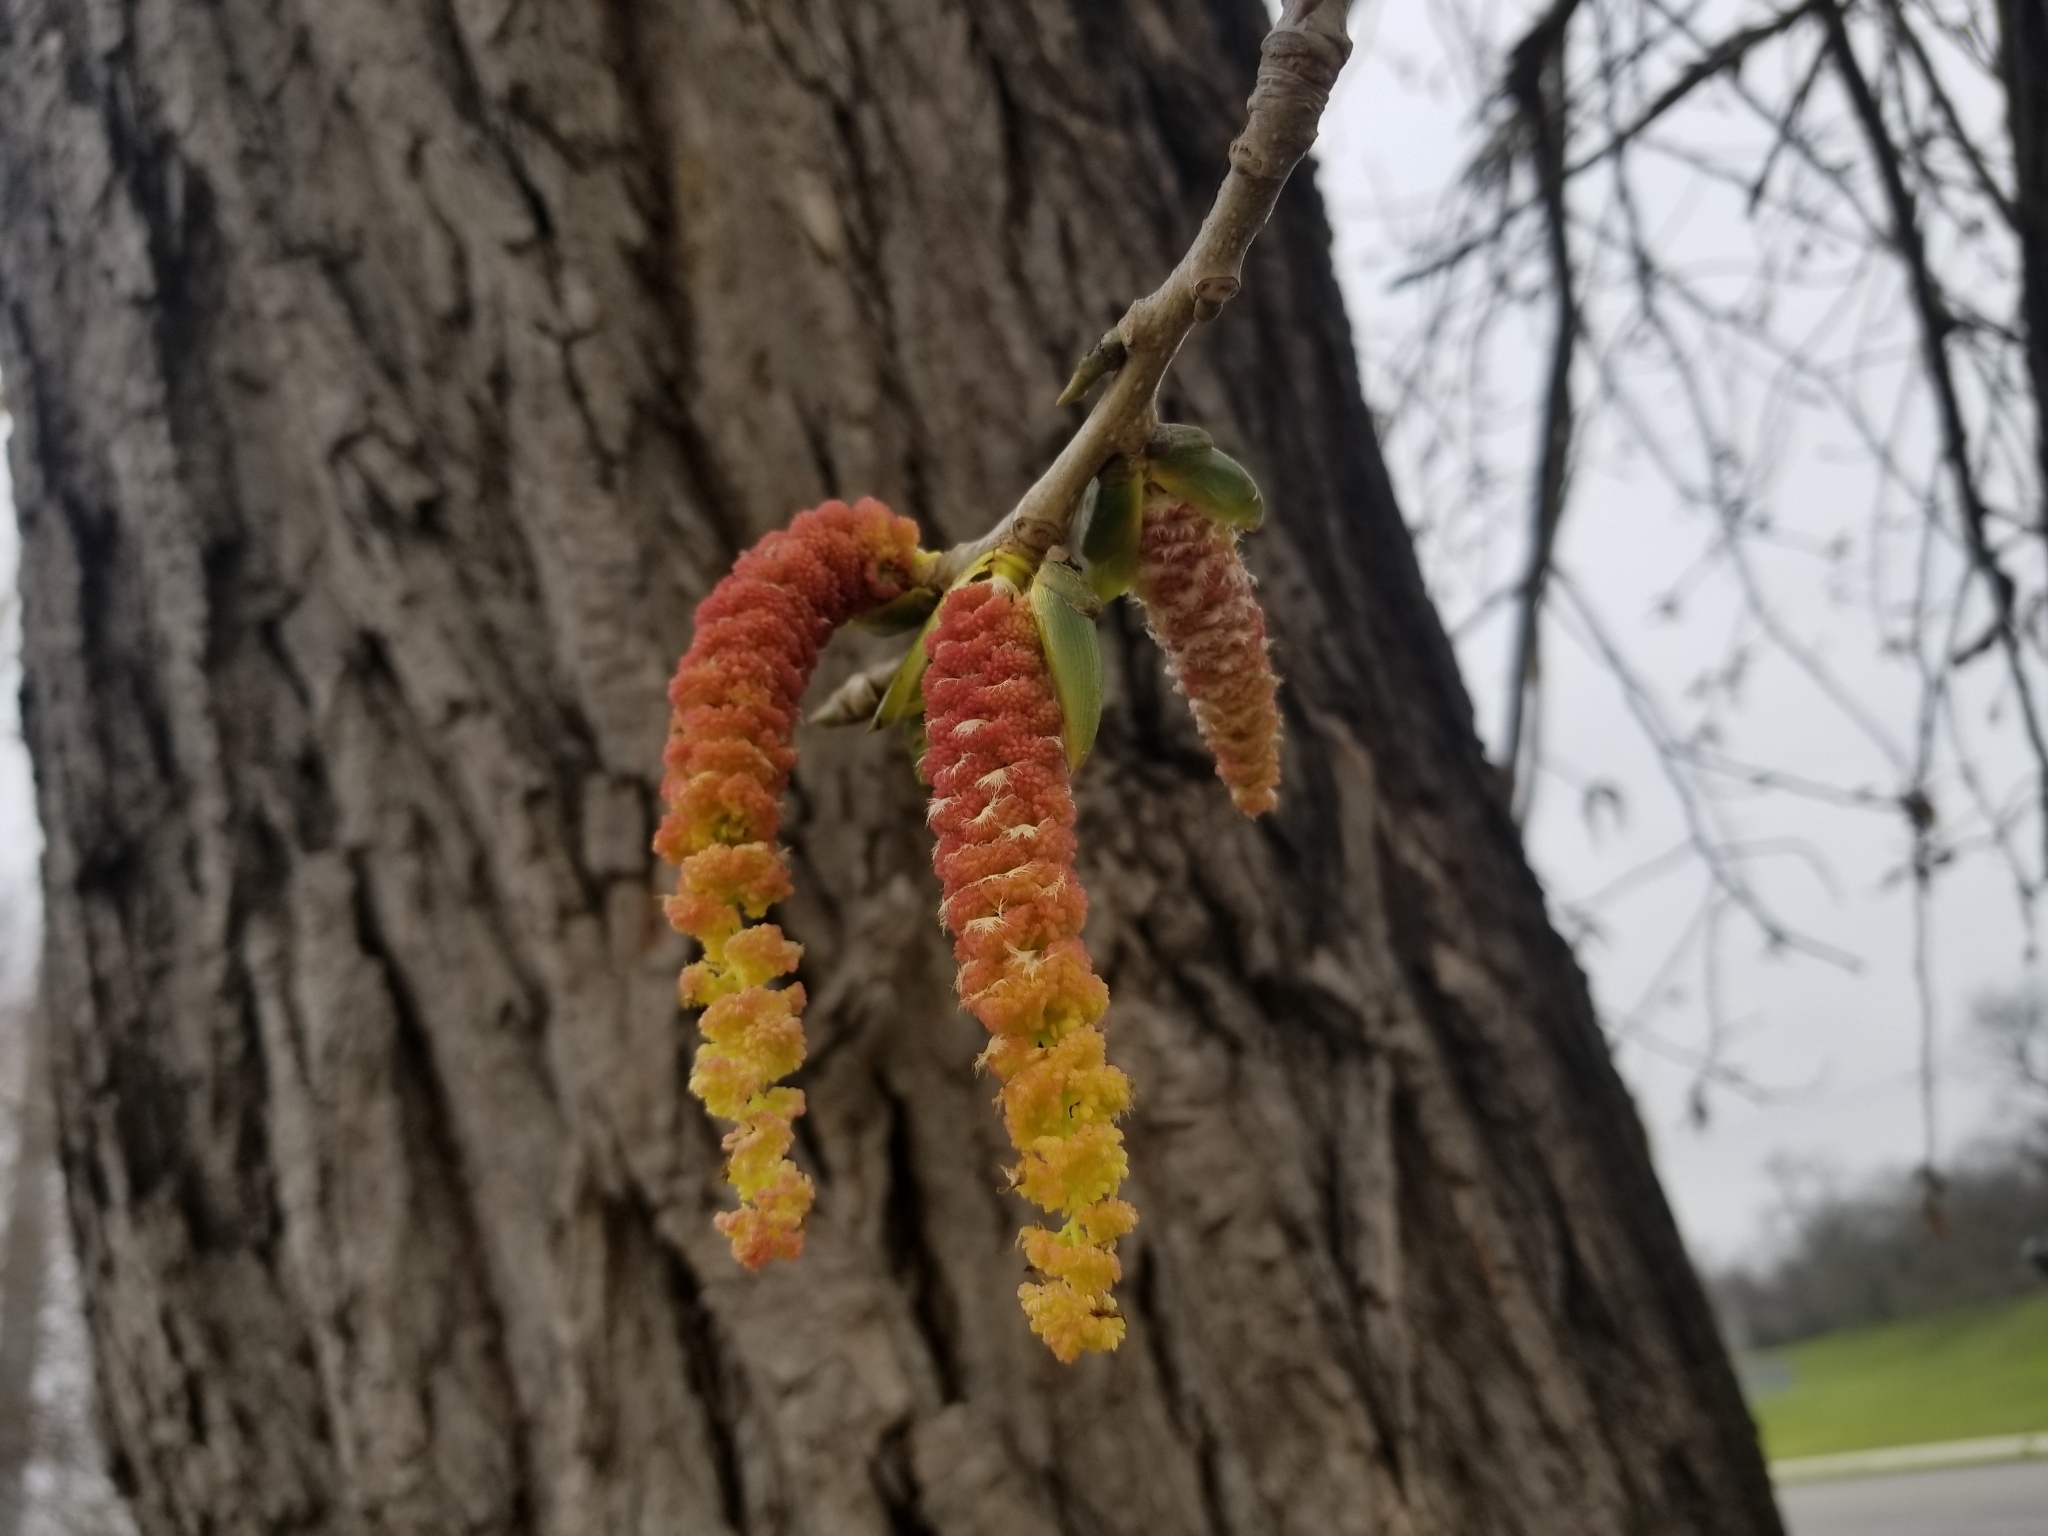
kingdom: Plantae
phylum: Tracheophyta
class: Magnoliopsida
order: Malpighiales
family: Salicaceae
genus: Populus
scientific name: Populus deltoides
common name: Eastern cottonwood
